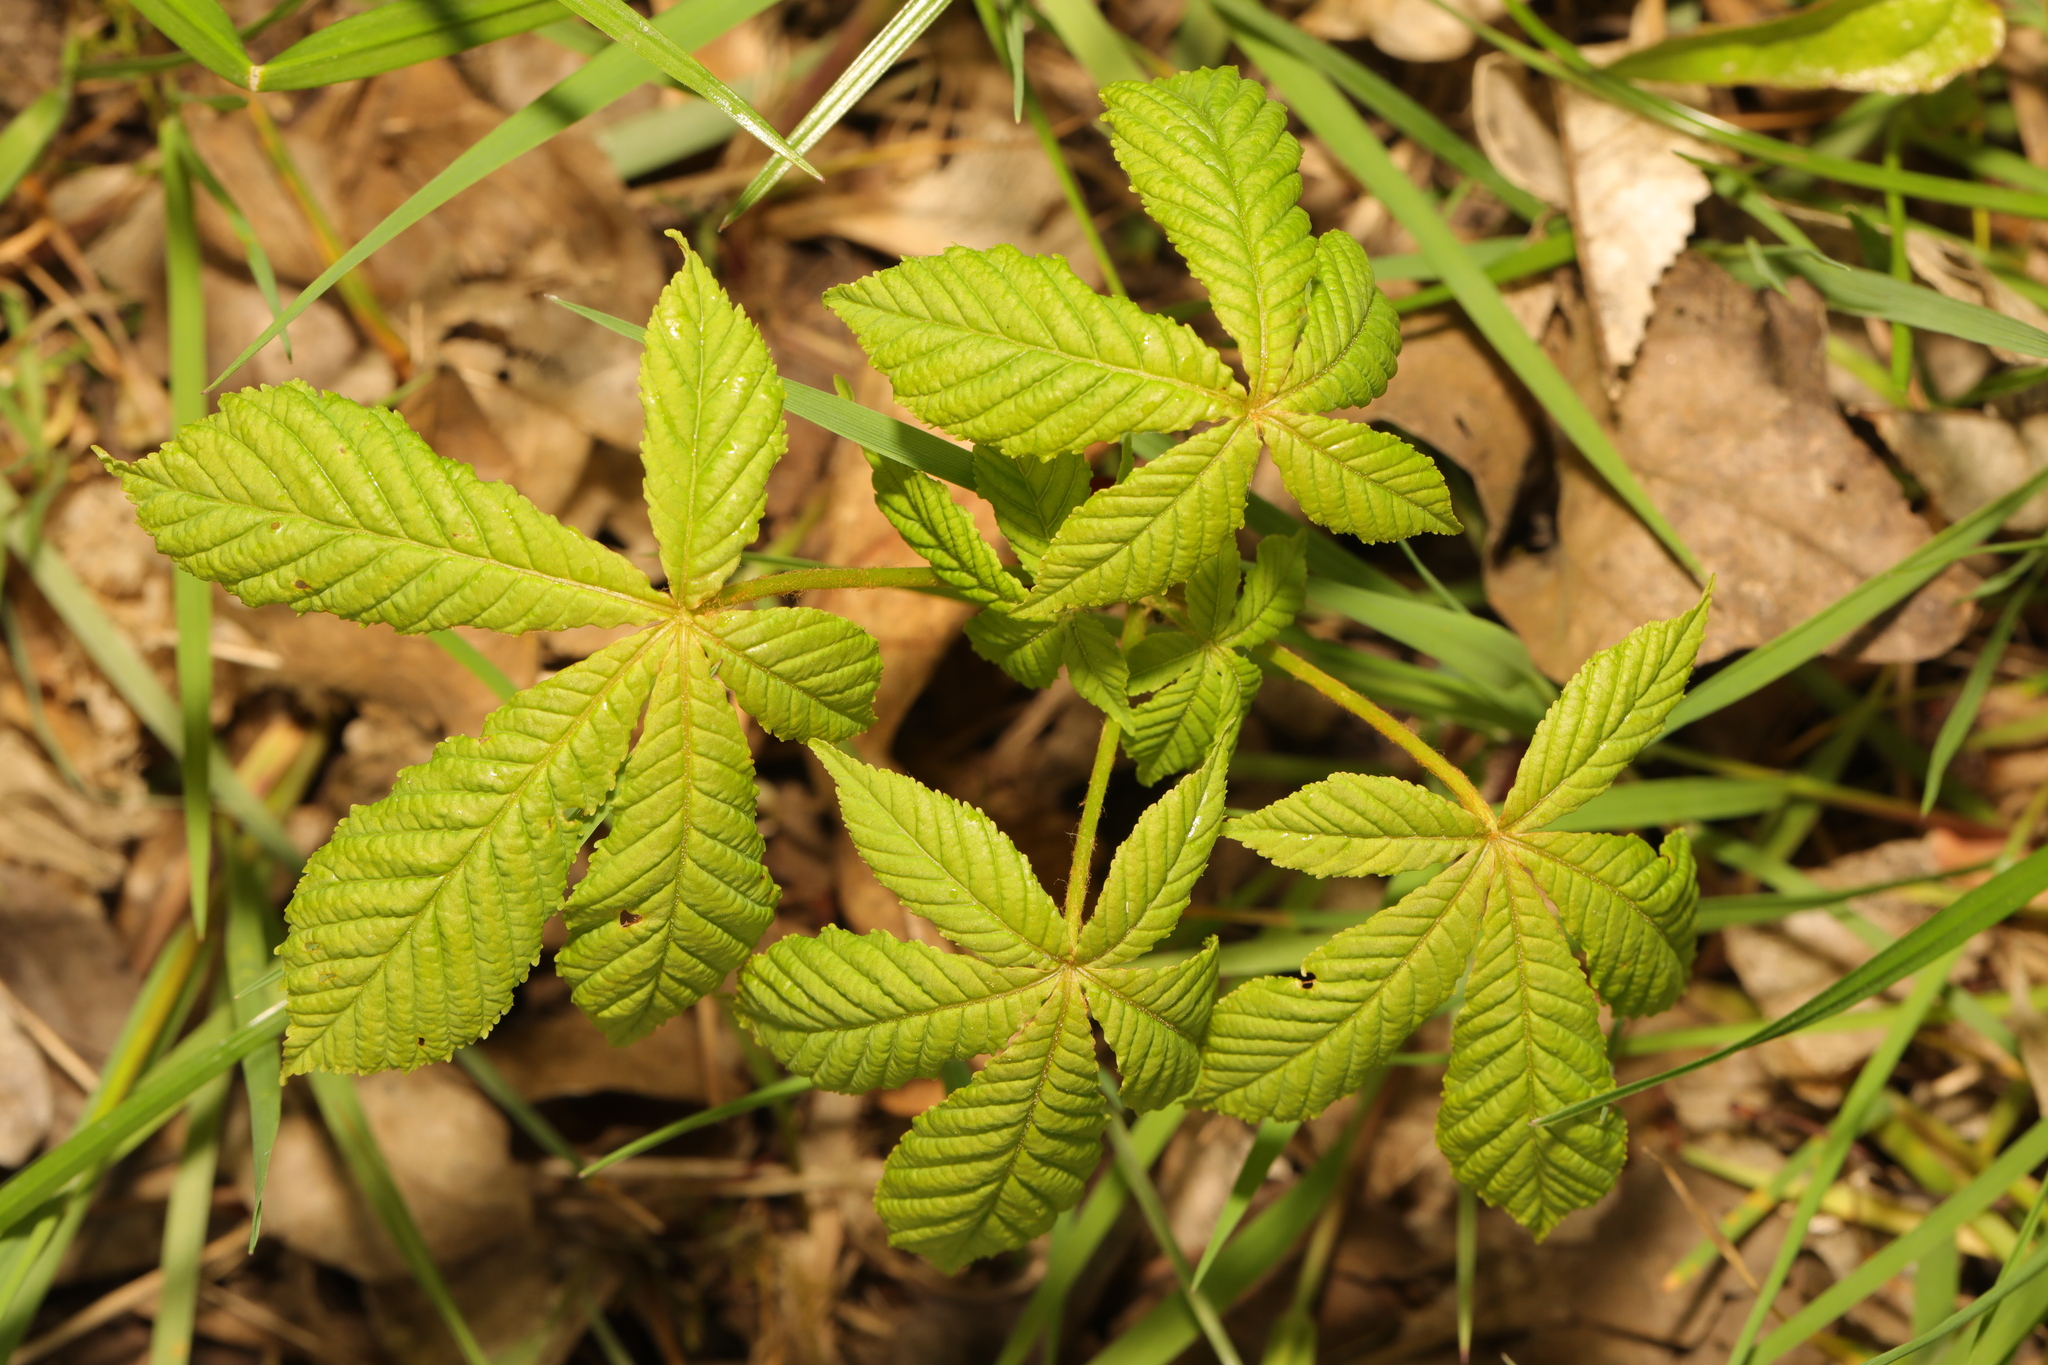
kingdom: Plantae
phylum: Tracheophyta
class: Magnoliopsida
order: Sapindales
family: Sapindaceae
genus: Aesculus
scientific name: Aesculus hippocastanum
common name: Horse-chestnut
